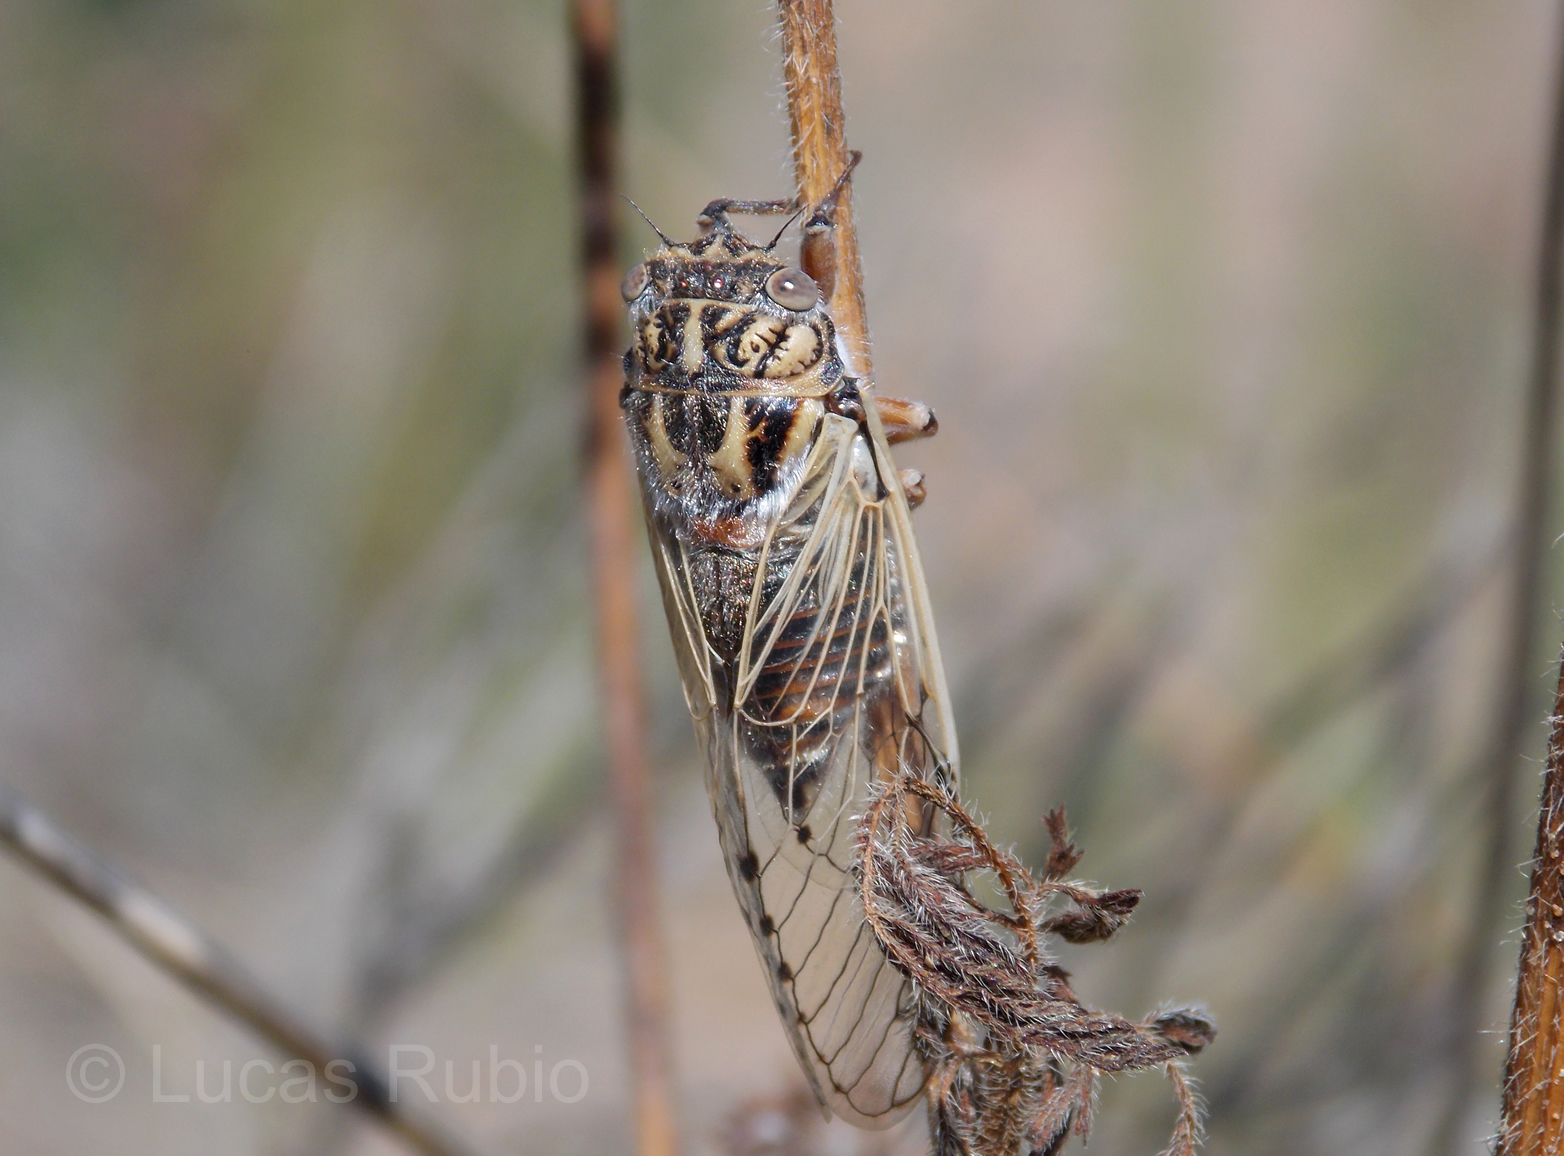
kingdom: Animalia
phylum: Arthropoda
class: Insecta
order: Hemiptera
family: Cicadidae
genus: Proarna
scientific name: Proarna uruguayensis
